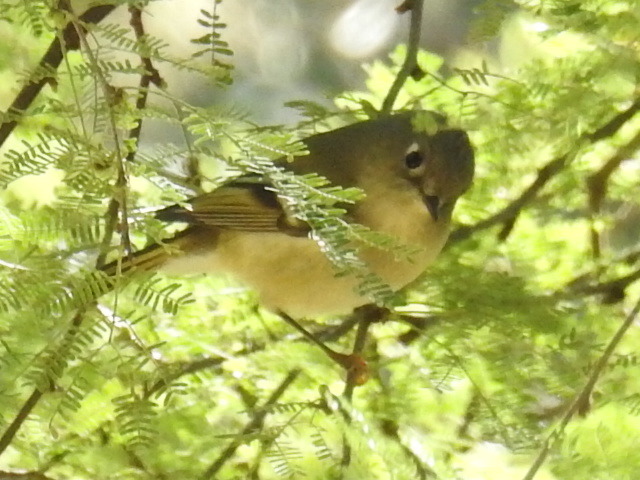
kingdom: Animalia
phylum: Chordata
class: Aves
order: Passeriformes
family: Regulidae
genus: Regulus
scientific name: Regulus calendula
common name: Ruby-crowned kinglet
